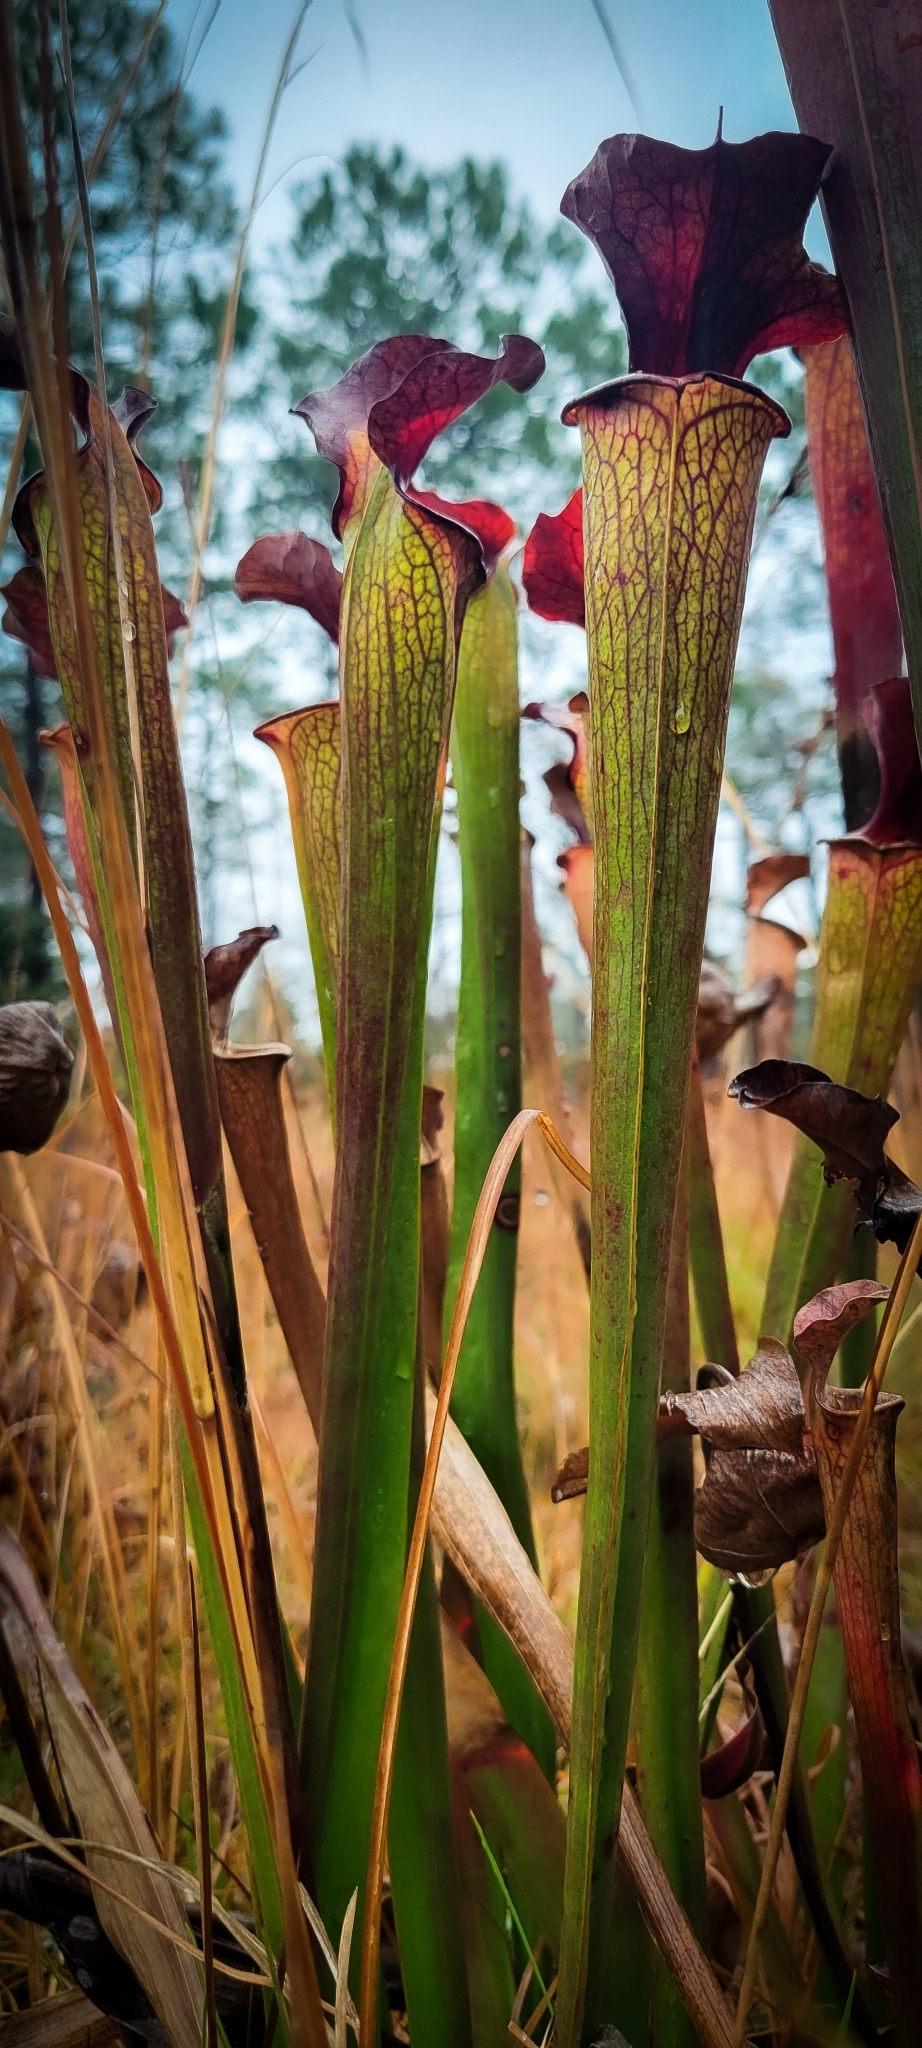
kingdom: Plantae
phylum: Tracheophyta
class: Magnoliopsida
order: Ericales
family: Sarraceniaceae
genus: Sarracenia
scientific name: Sarracenia moorei
